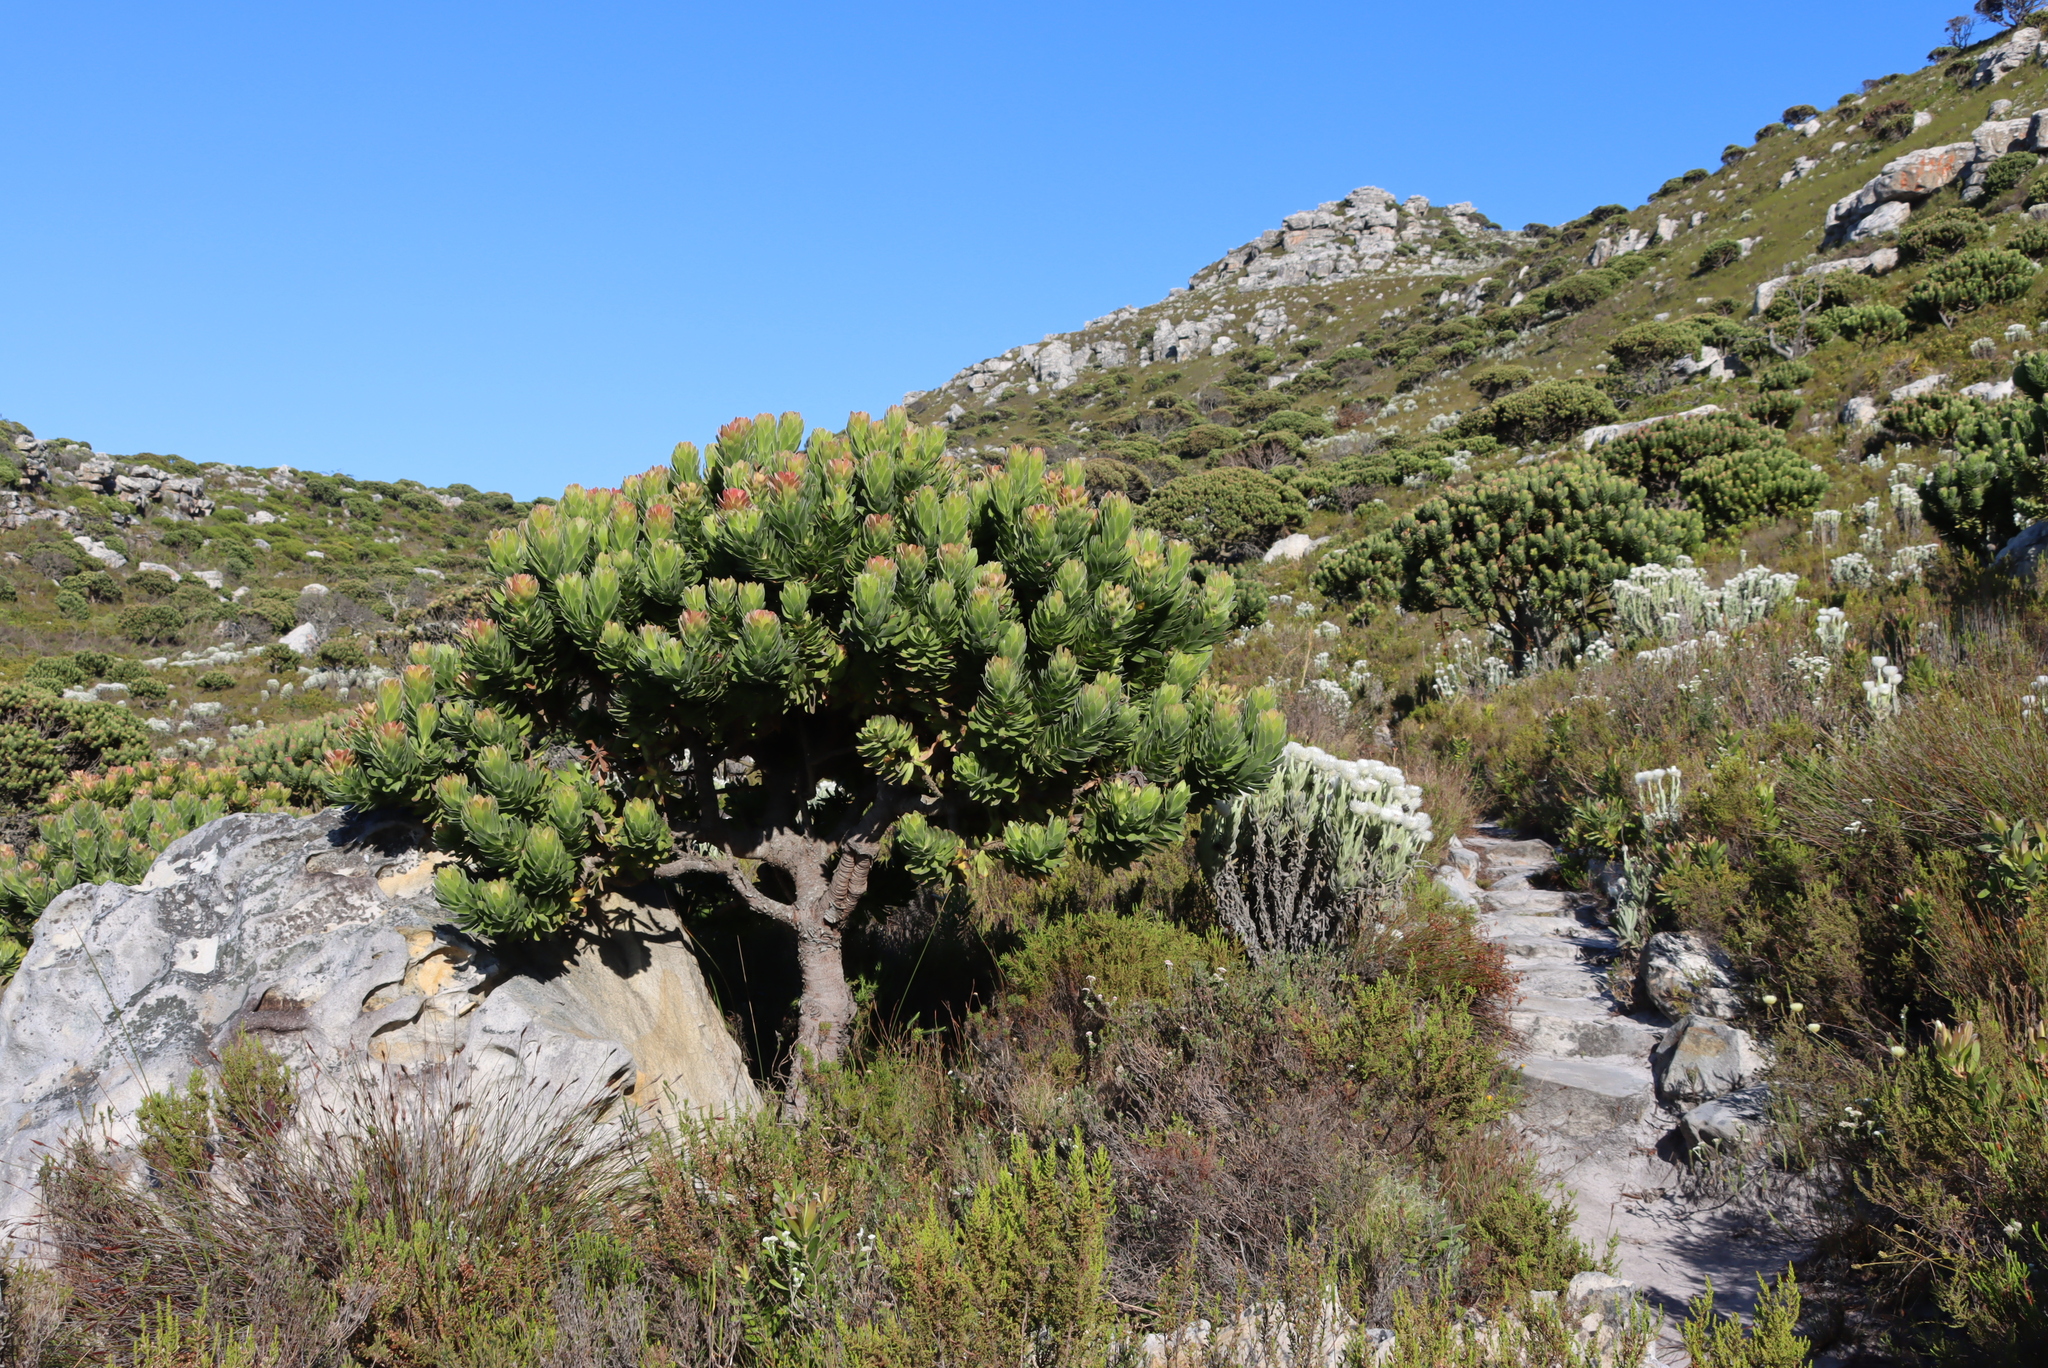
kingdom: Plantae
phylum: Tracheophyta
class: Magnoliopsida
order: Proteales
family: Proteaceae
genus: Mimetes
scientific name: Mimetes fimbriifolius
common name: Fringed bottlebrush
